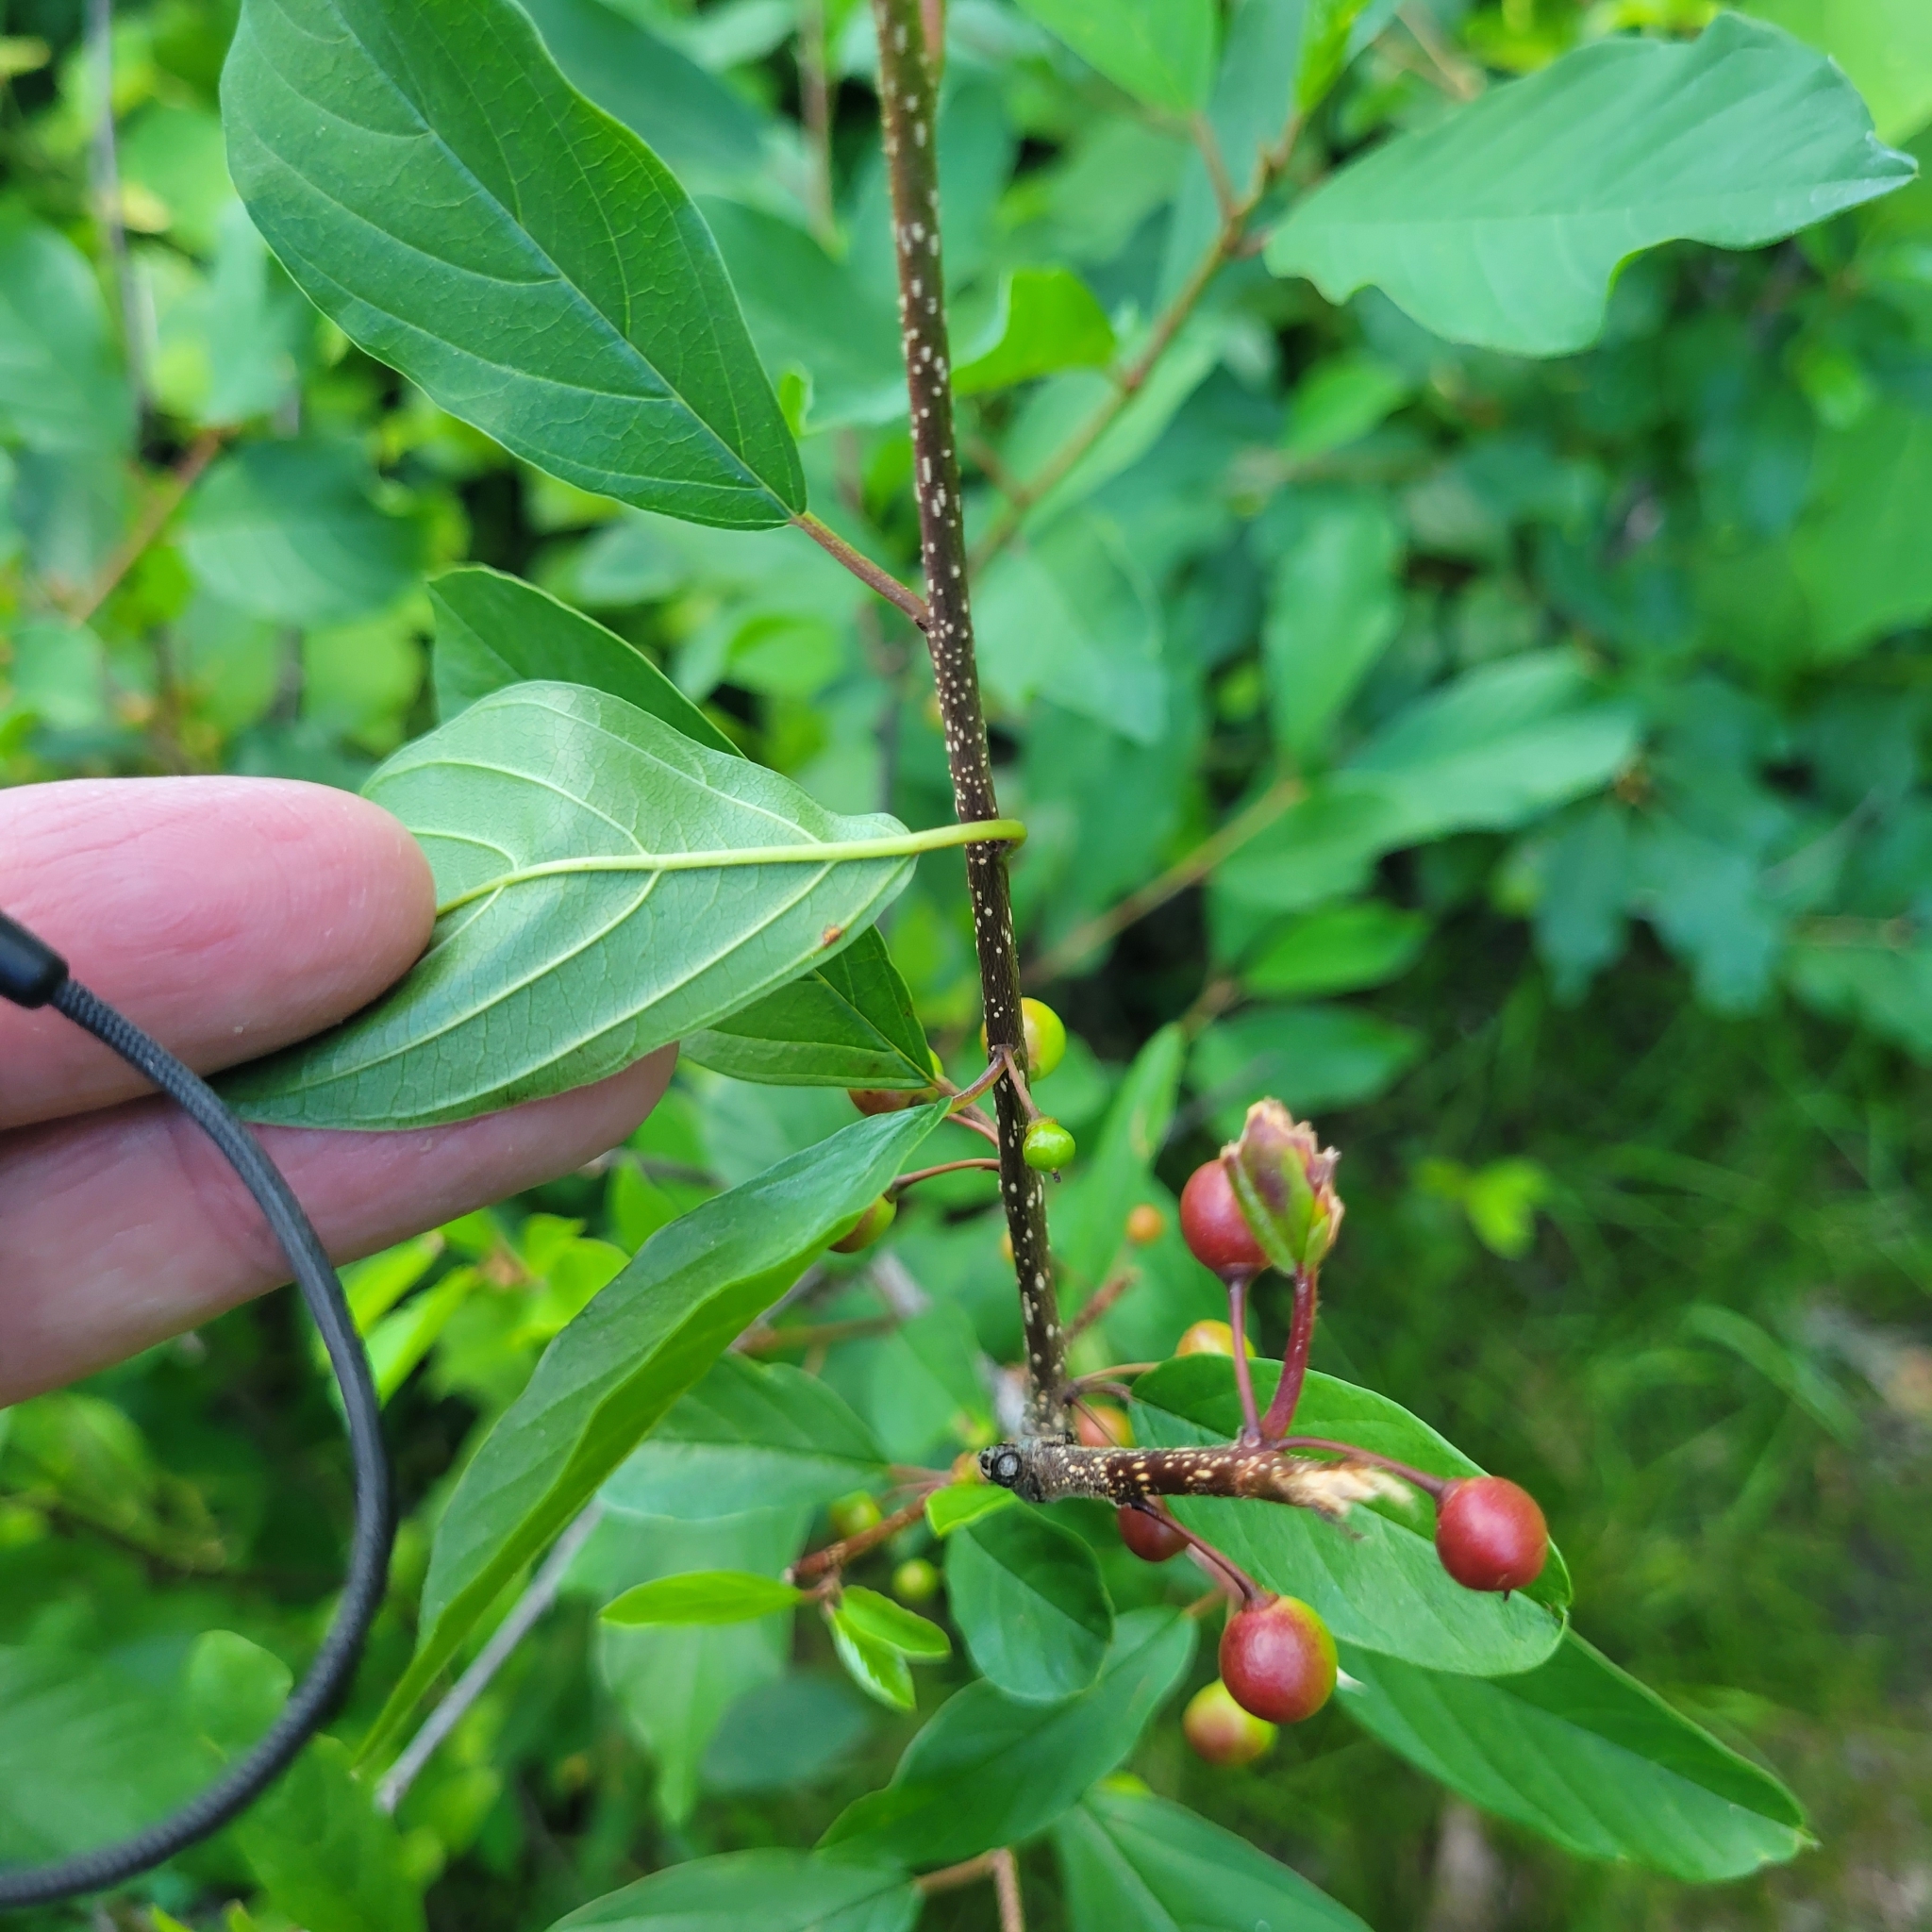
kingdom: Plantae
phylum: Tracheophyta
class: Magnoliopsida
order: Rosales
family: Rhamnaceae
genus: Frangula
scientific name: Frangula alnus
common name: Alder buckthorn
